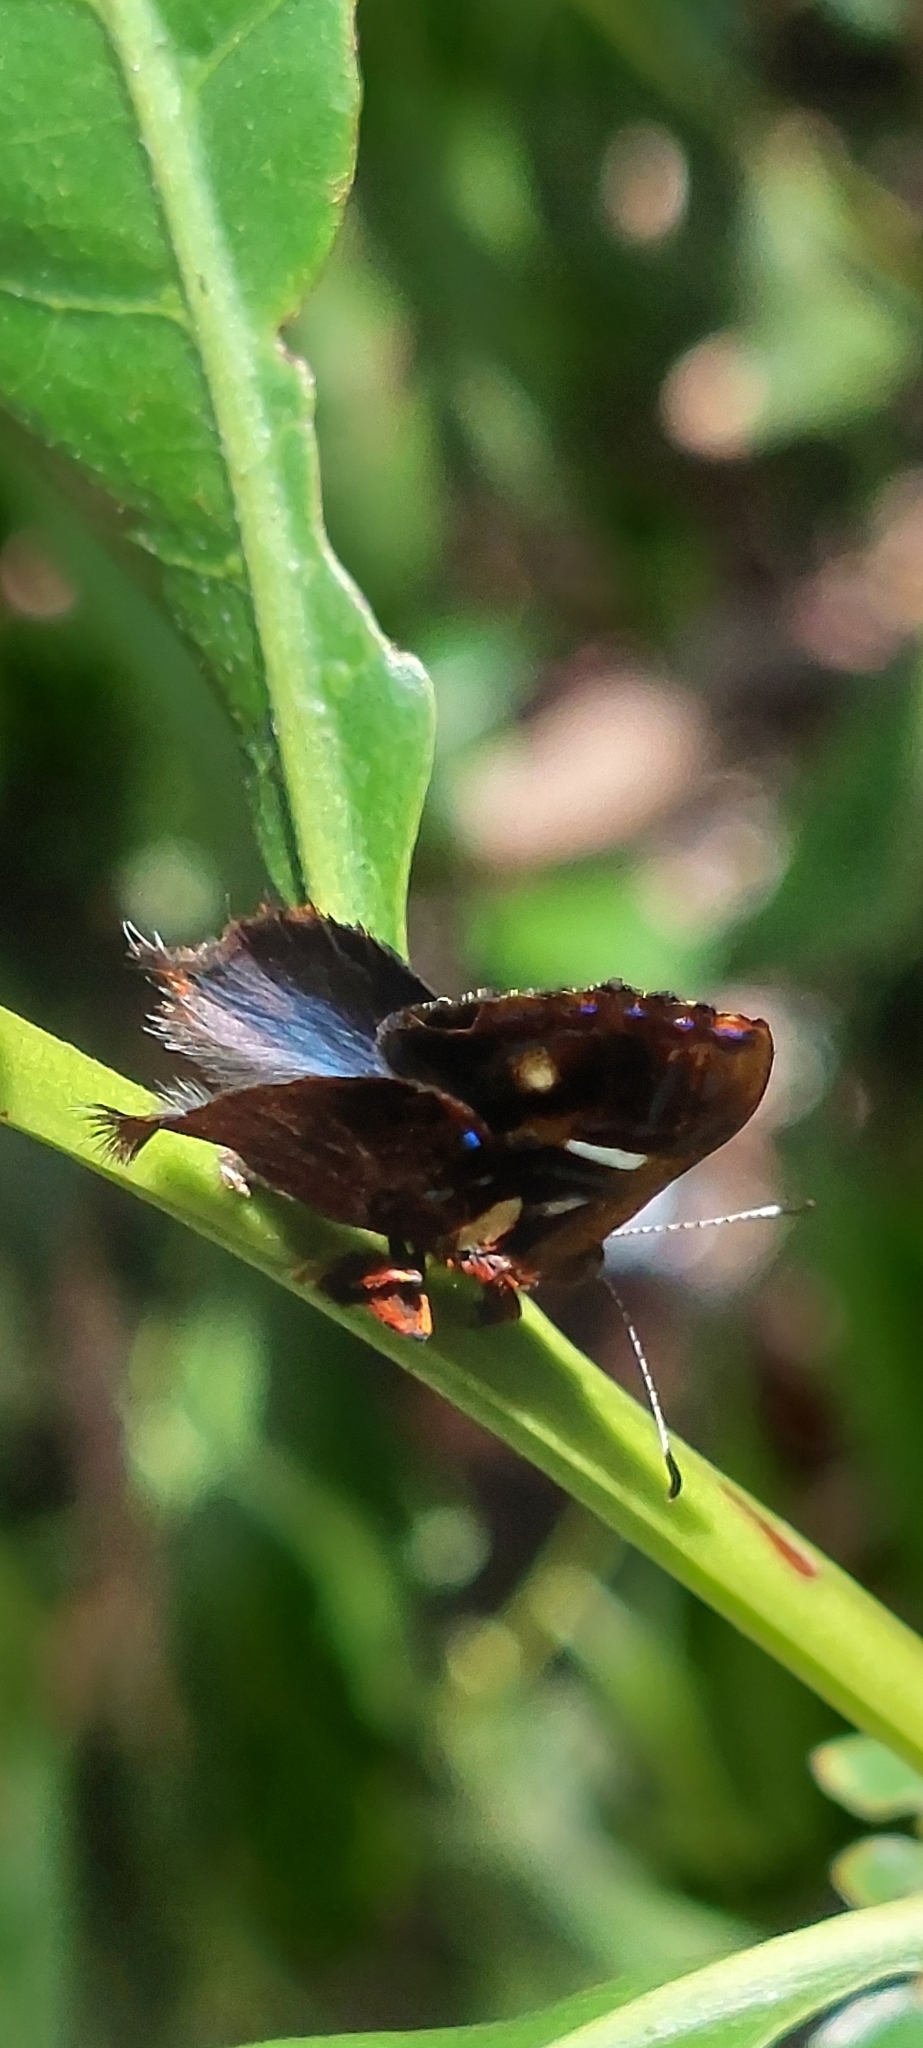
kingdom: Animalia
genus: Anteros
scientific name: Anteros carausius
